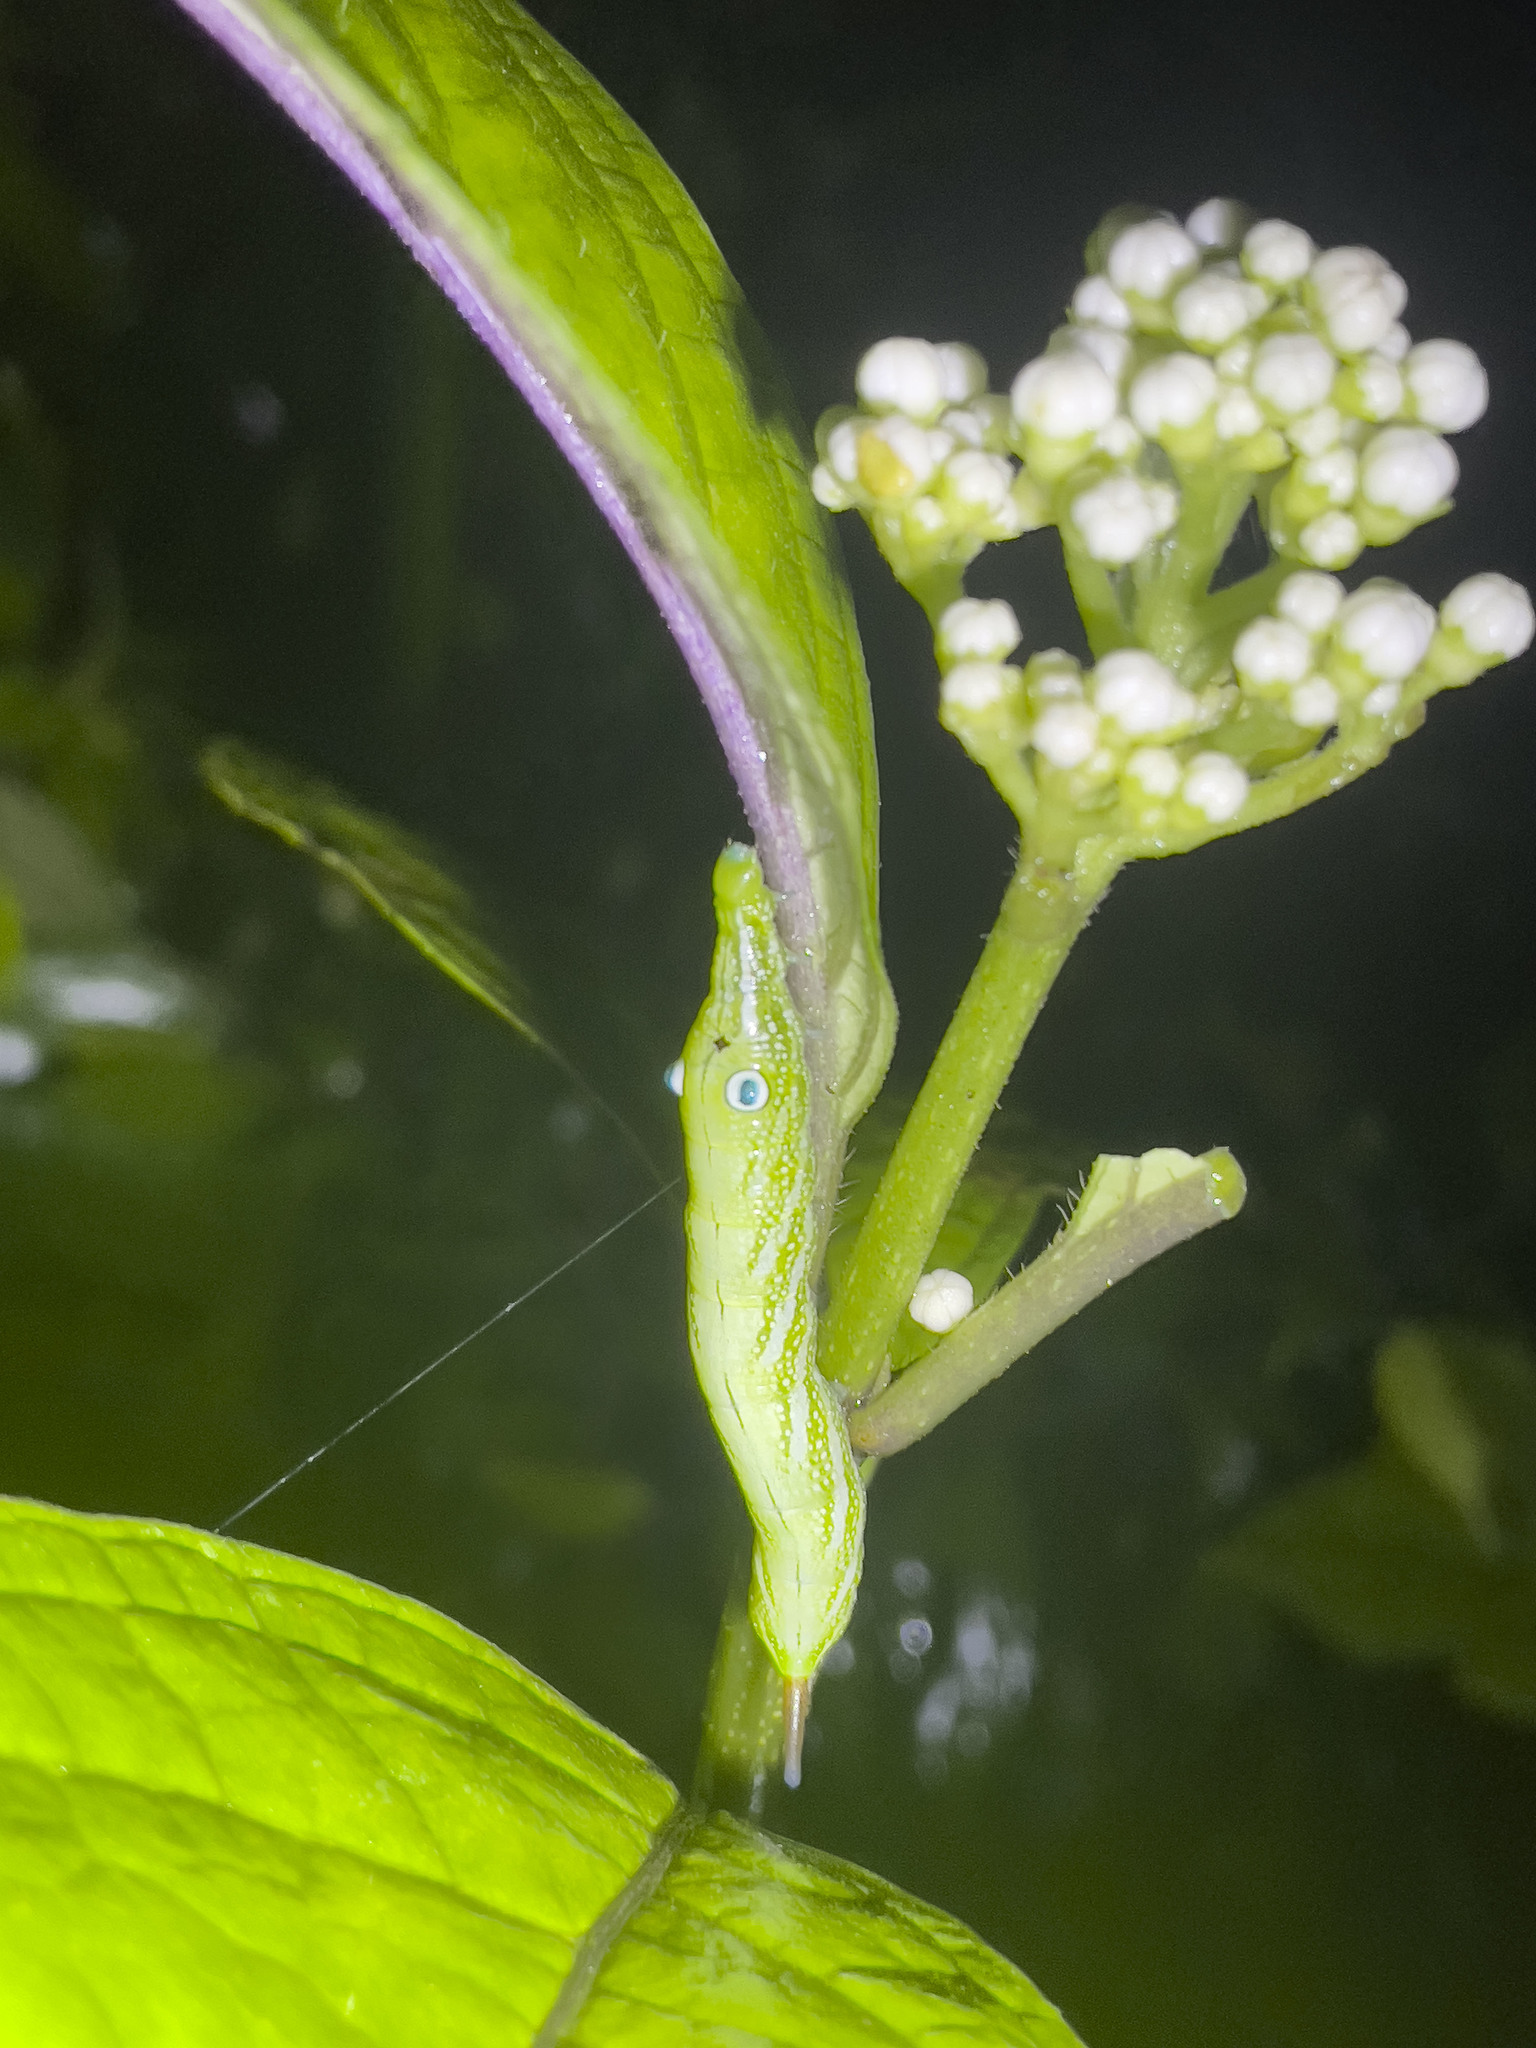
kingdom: Animalia
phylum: Arthropoda
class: Insecta
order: Lepidoptera
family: Sphingidae
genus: Rhagastis
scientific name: Rhagastis confusa
